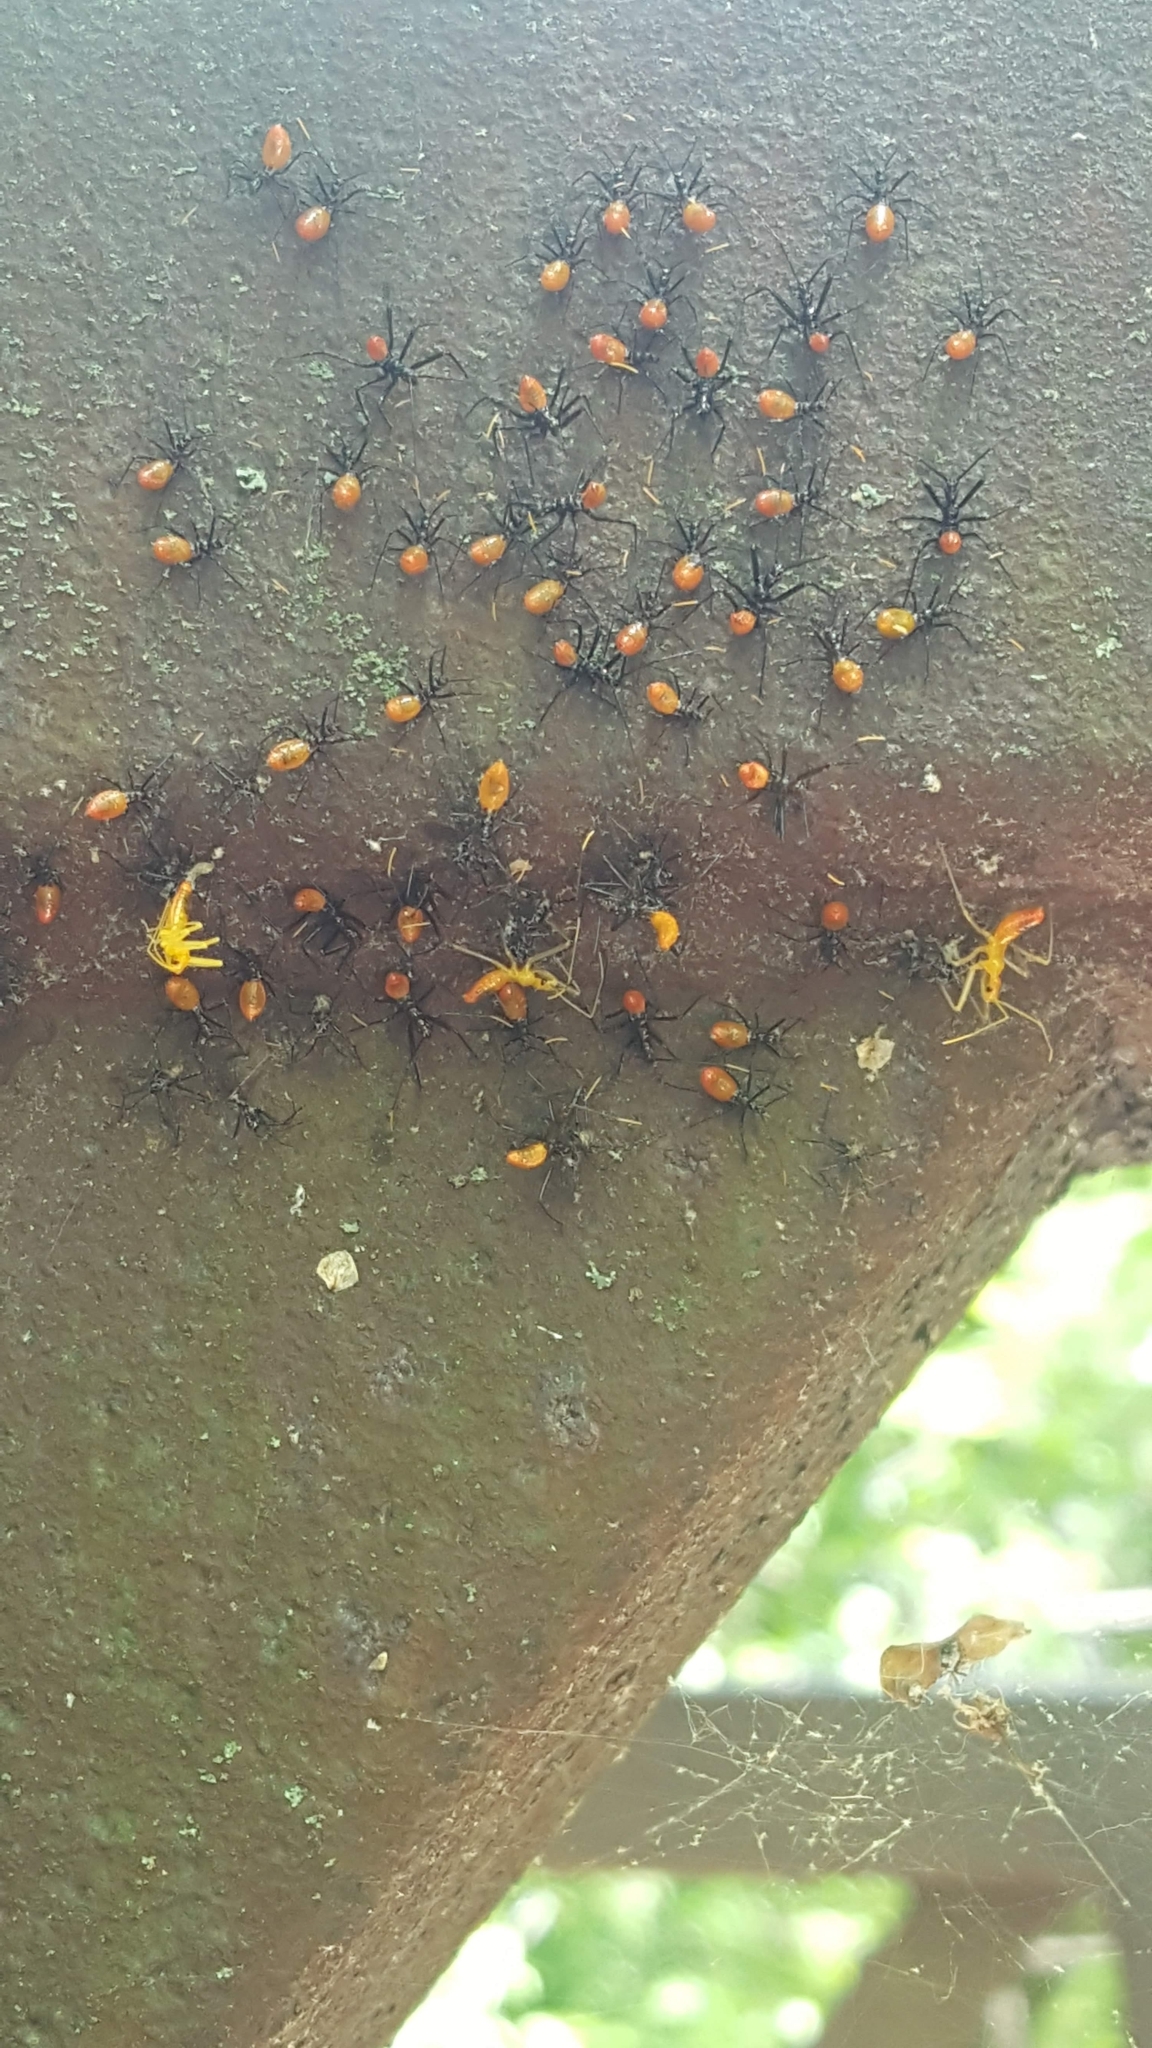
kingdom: Animalia
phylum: Arthropoda
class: Insecta
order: Hemiptera
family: Reduviidae
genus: Arilus
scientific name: Arilus cristatus
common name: North american wheel bug
